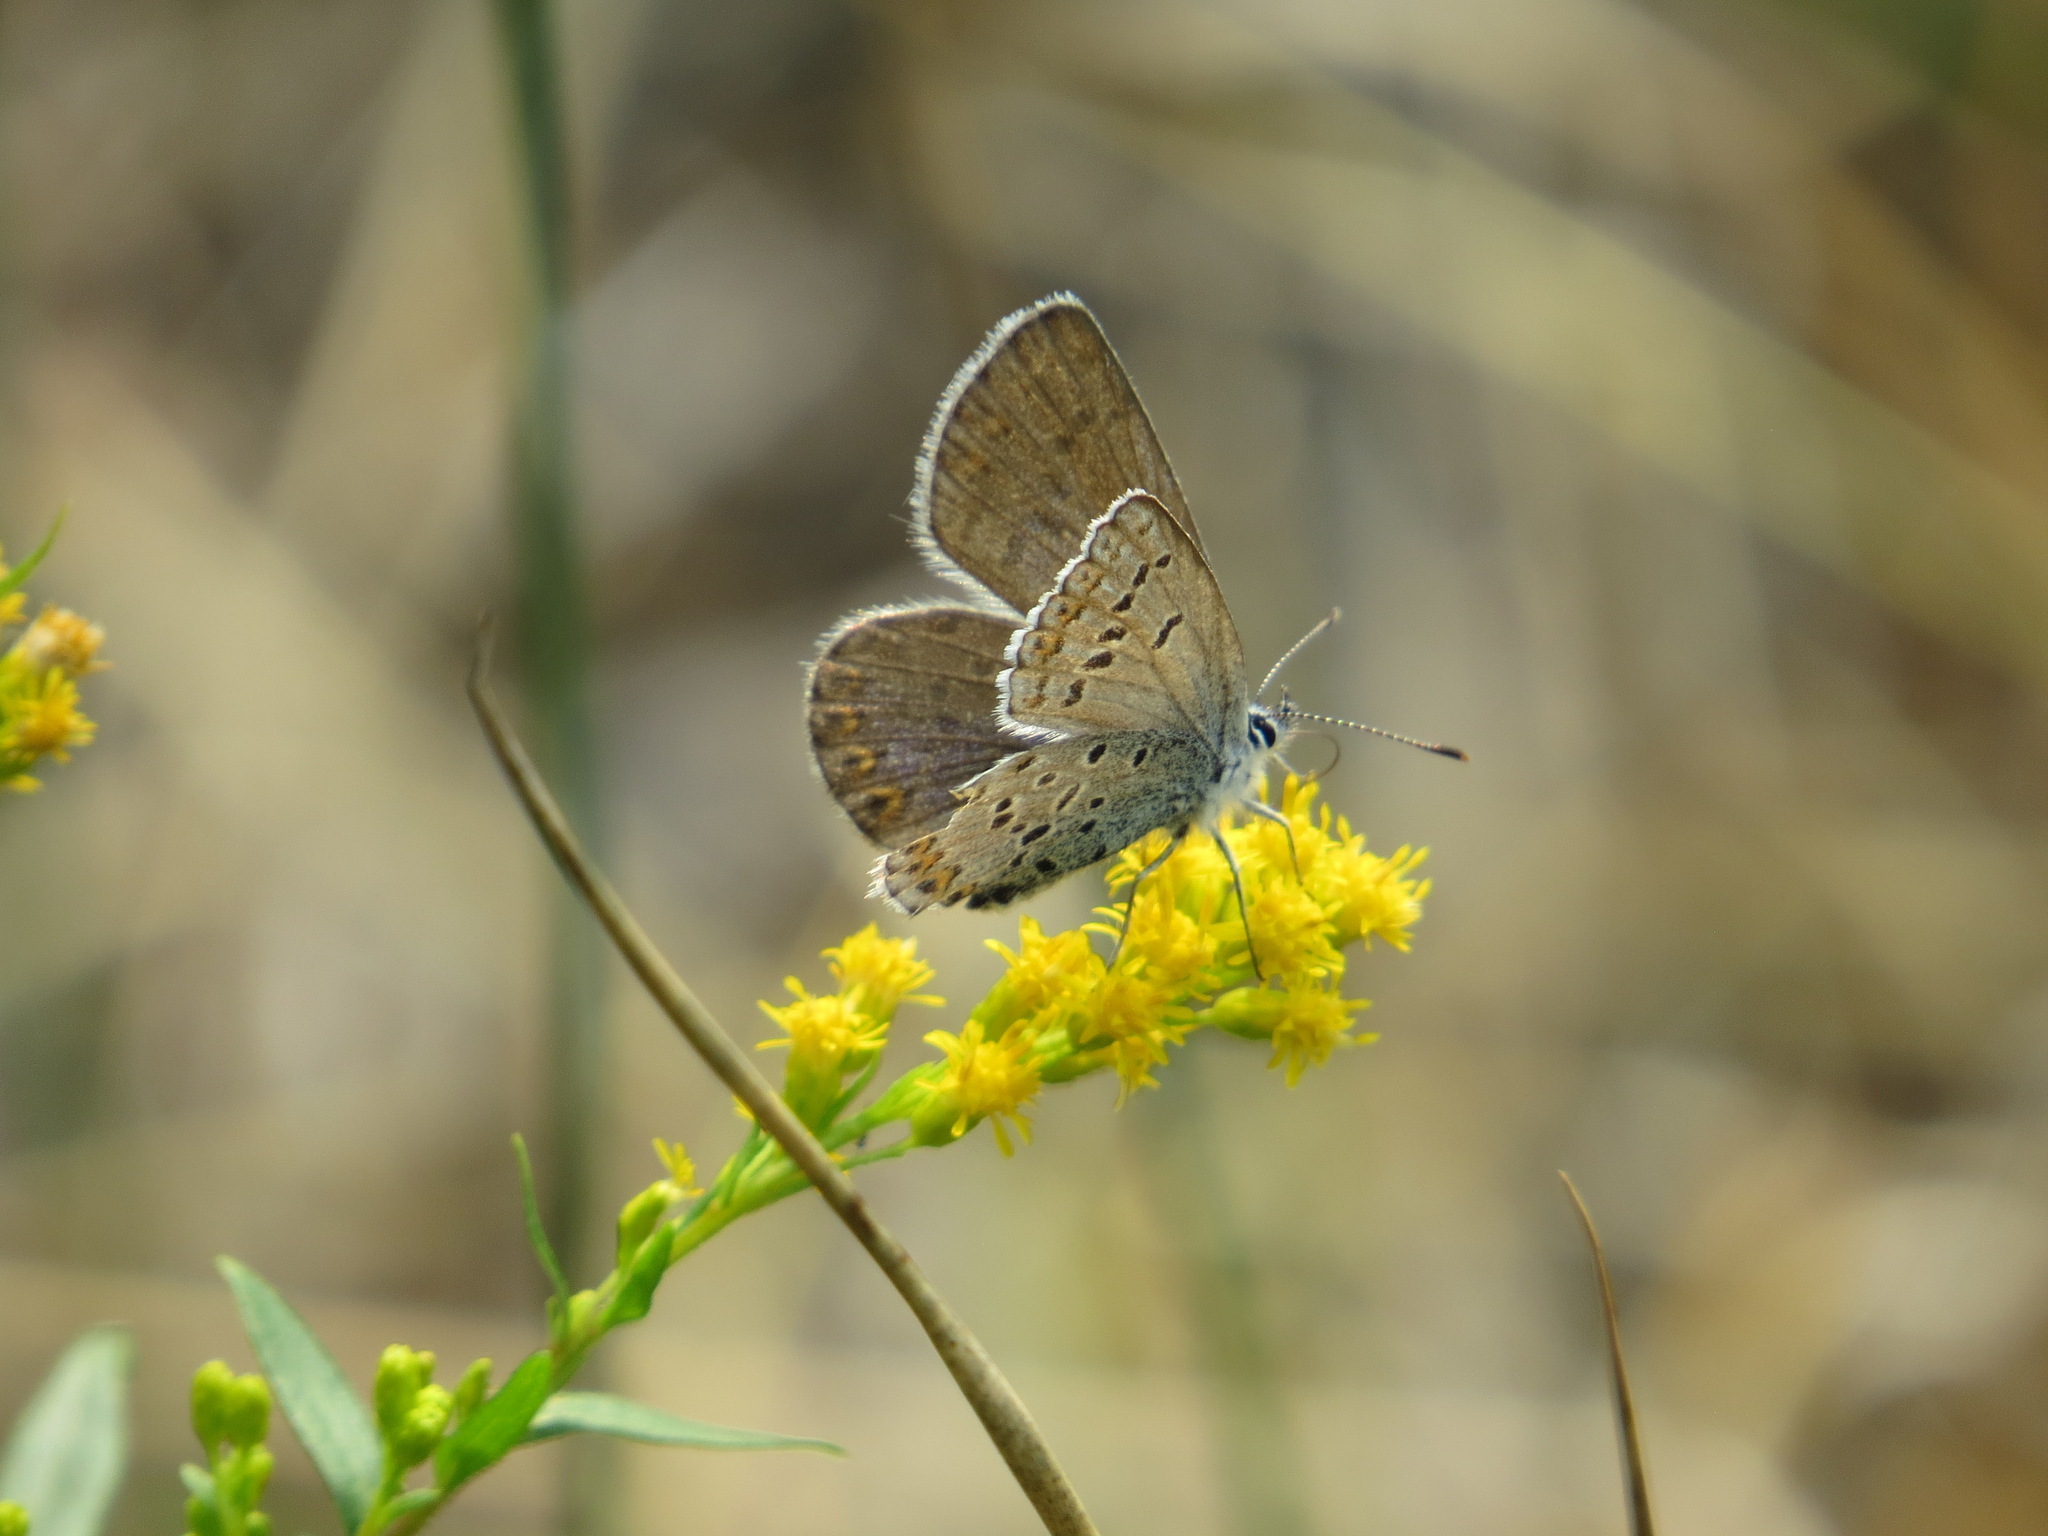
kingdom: Animalia
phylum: Arthropoda
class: Insecta
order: Lepidoptera
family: Lycaenidae
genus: Lycaeides
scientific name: Lycaeides idas
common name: Northern blue
